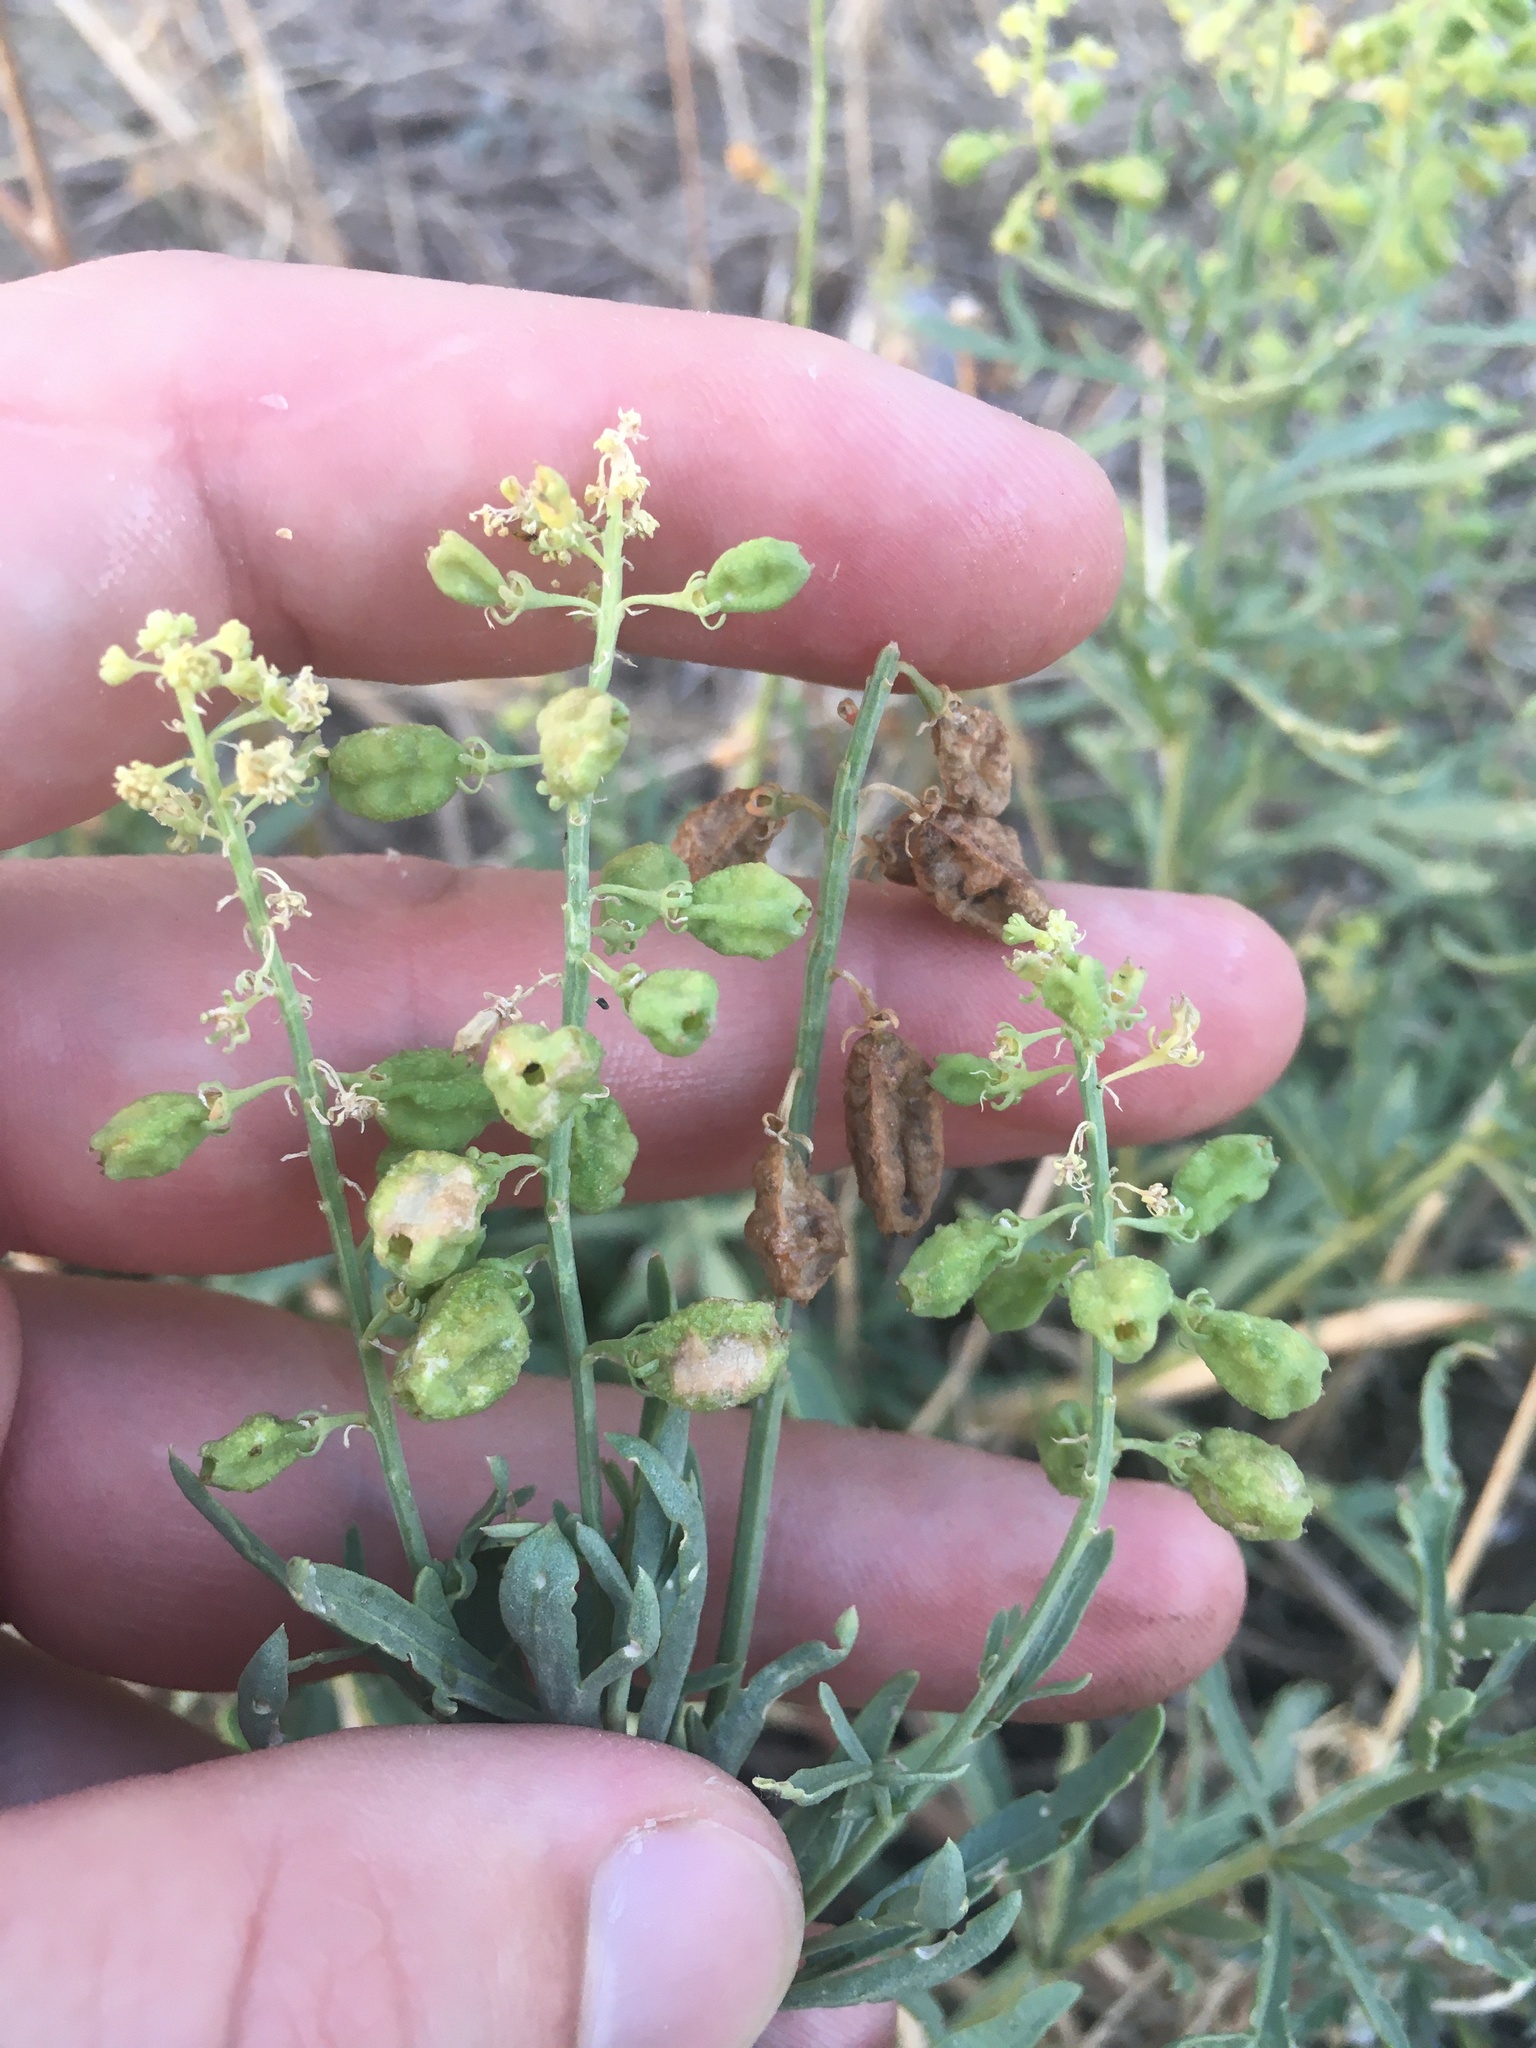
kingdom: Plantae
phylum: Tracheophyta
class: Magnoliopsida
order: Brassicales
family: Resedaceae
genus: Reseda
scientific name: Reseda lutea
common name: Wild mignonette
